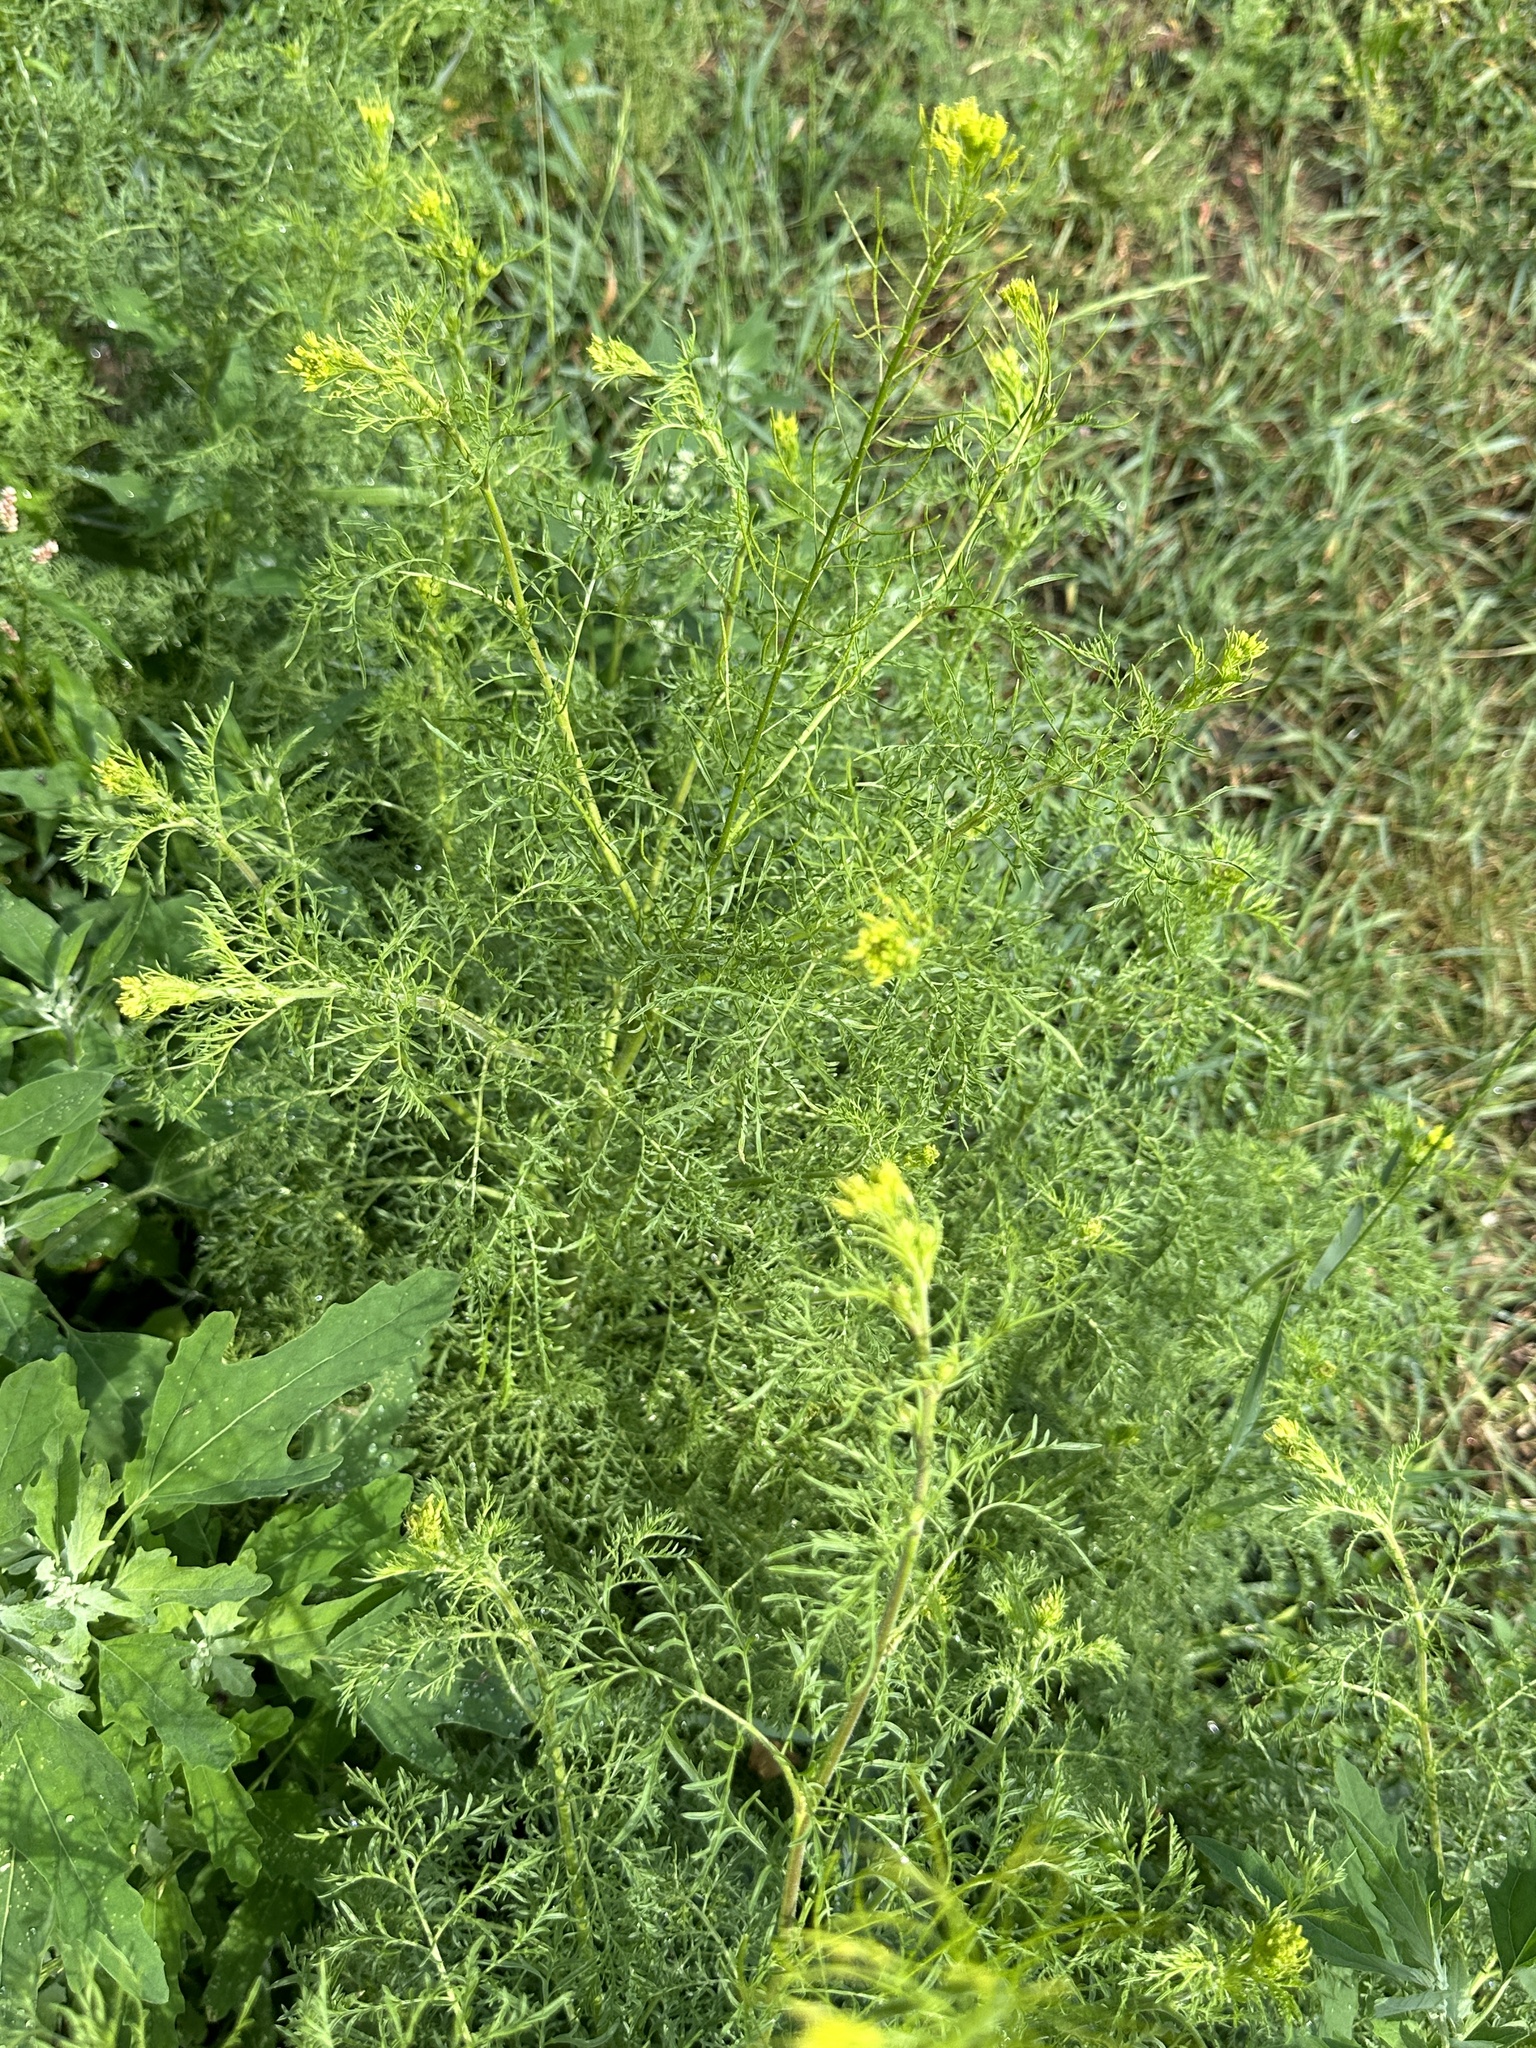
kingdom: Plantae
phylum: Tracheophyta
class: Magnoliopsida
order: Brassicales
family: Brassicaceae
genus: Descurainia
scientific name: Descurainia sophia
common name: Flixweed
